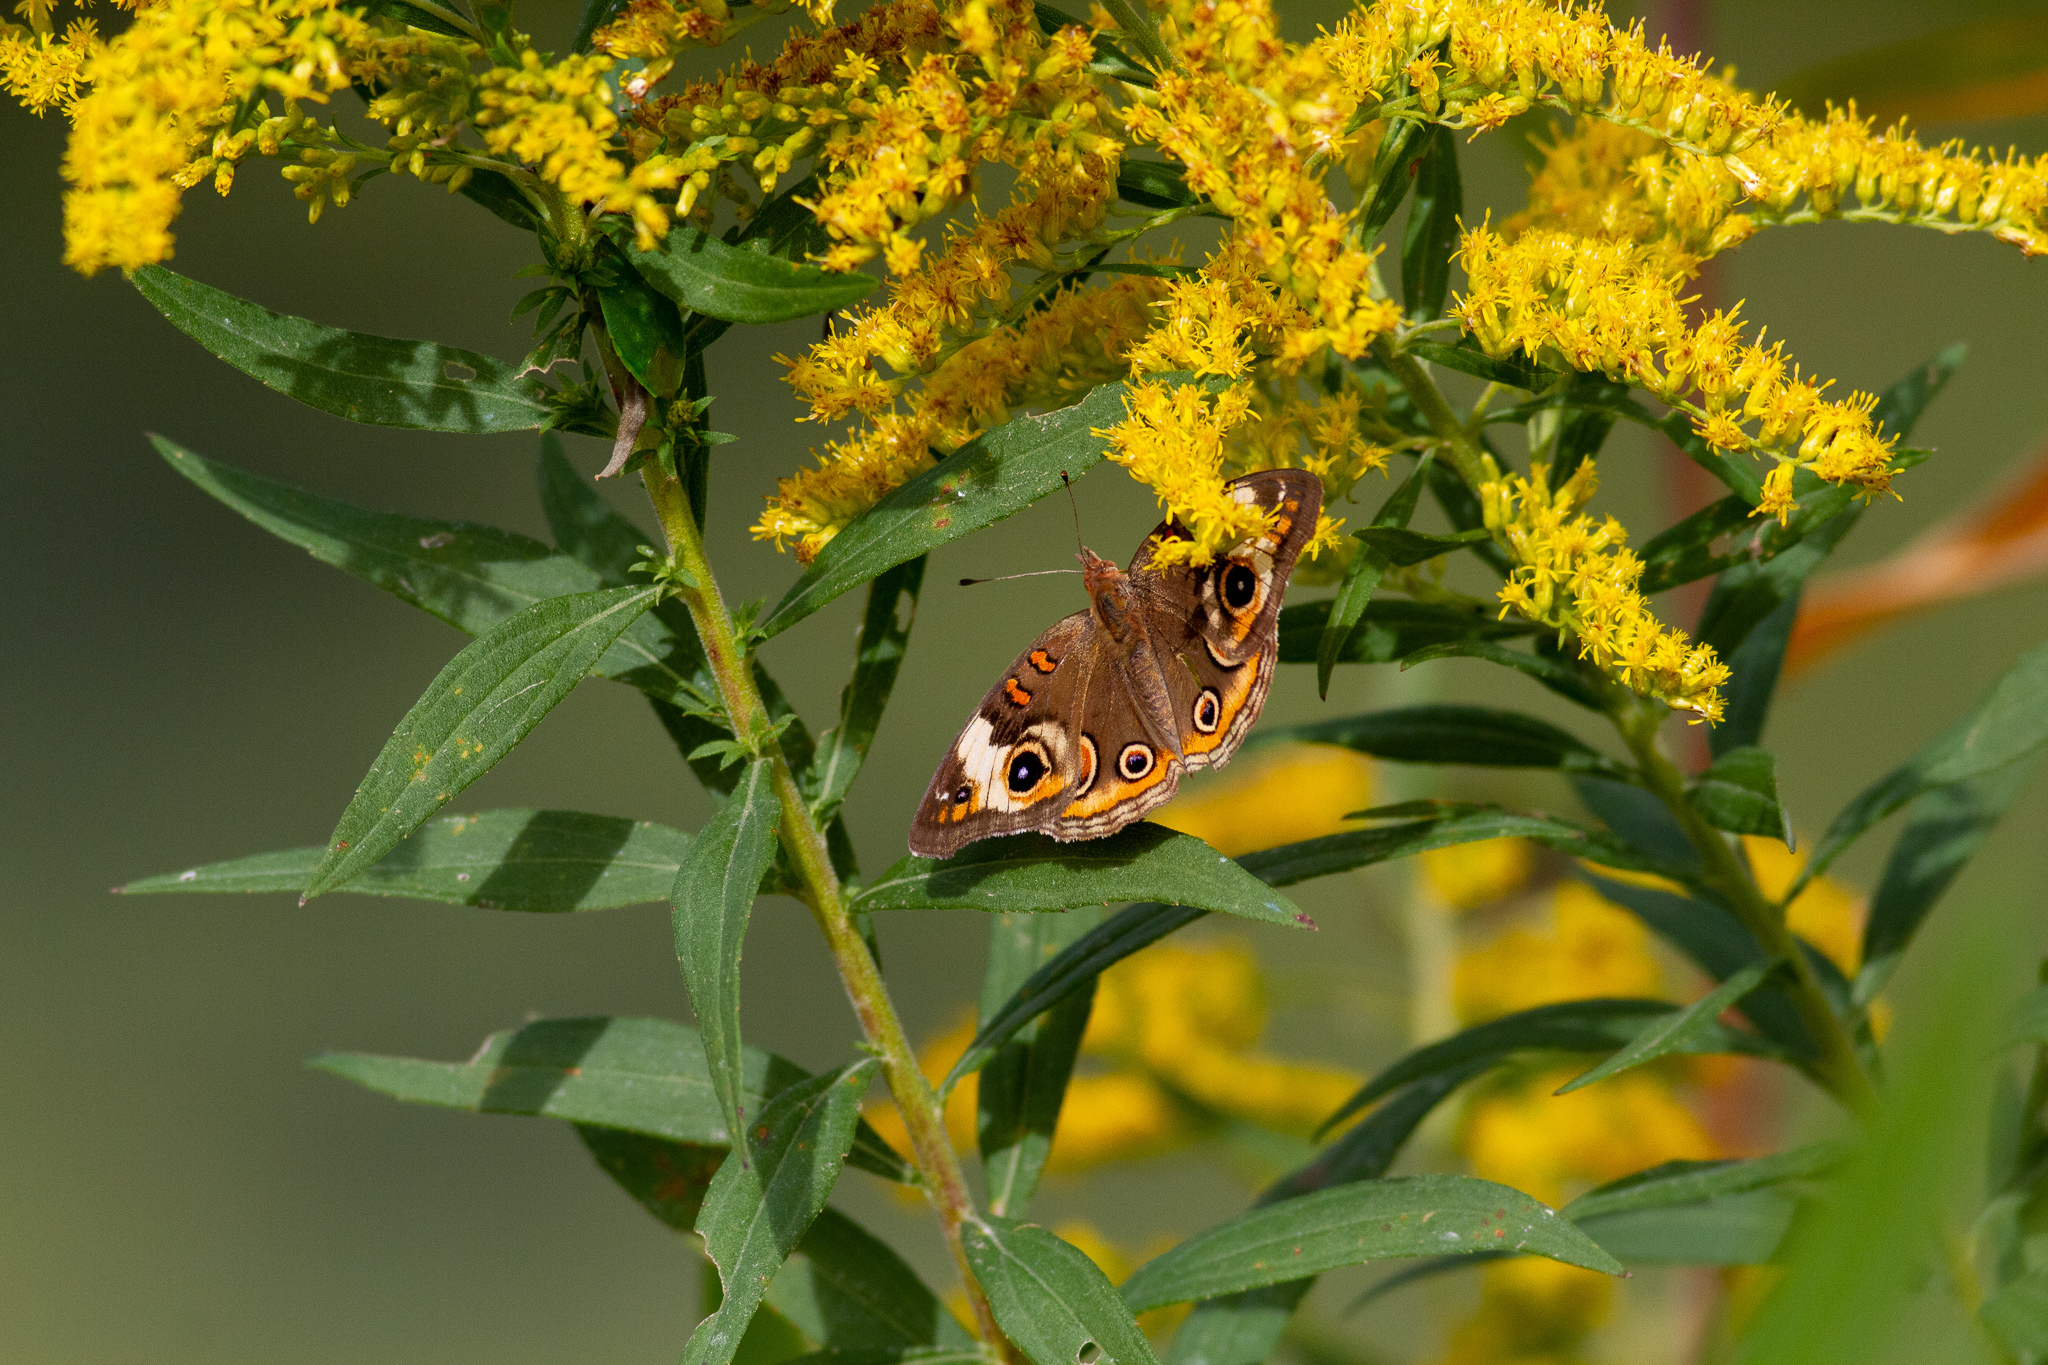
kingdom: Animalia
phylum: Arthropoda
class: Insecta
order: Lepidoptera
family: Nymphalidae
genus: Junonia
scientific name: Junonia coenia
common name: Common buckeye
